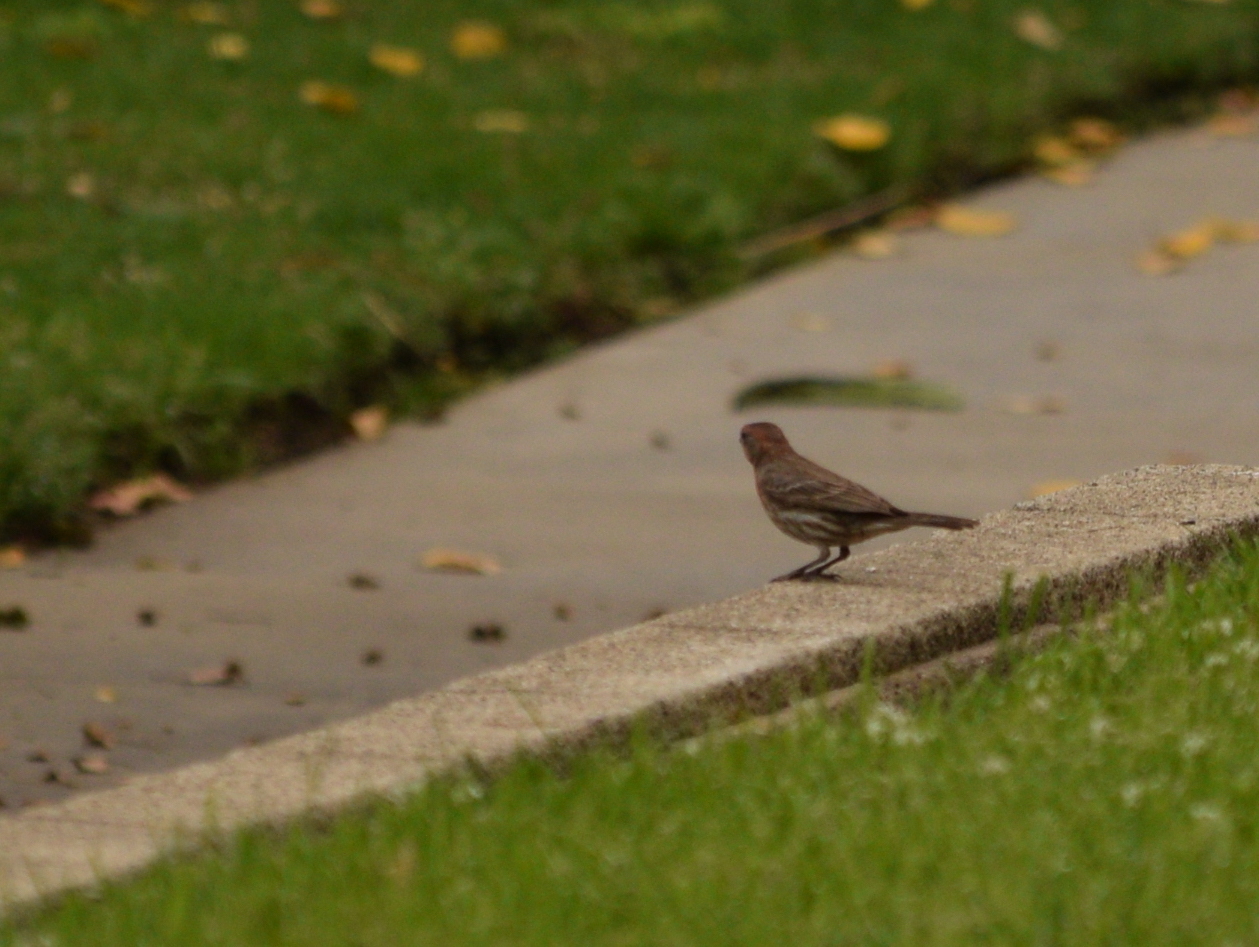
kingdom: Animalia
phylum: Chordata
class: Aves
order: Passeriformes
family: Fringillidae
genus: Haemorhous
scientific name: Haemorhous mexicanus
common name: House finch
